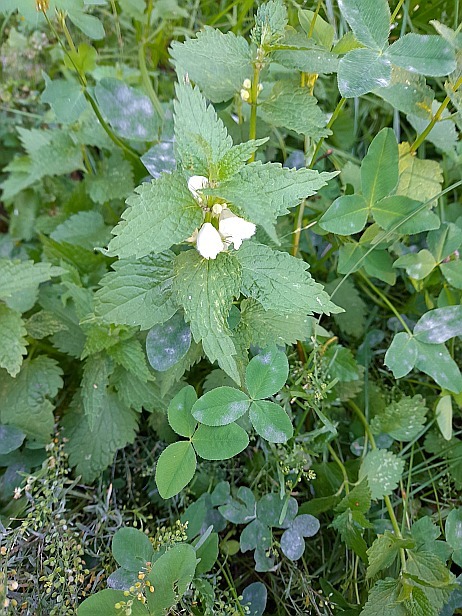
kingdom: Plantae
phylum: Tracheophyta
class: Magnoliopsida
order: Lamiales
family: Lamiaceae
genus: Lamium
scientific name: Lamium album
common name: White dead-nettle
